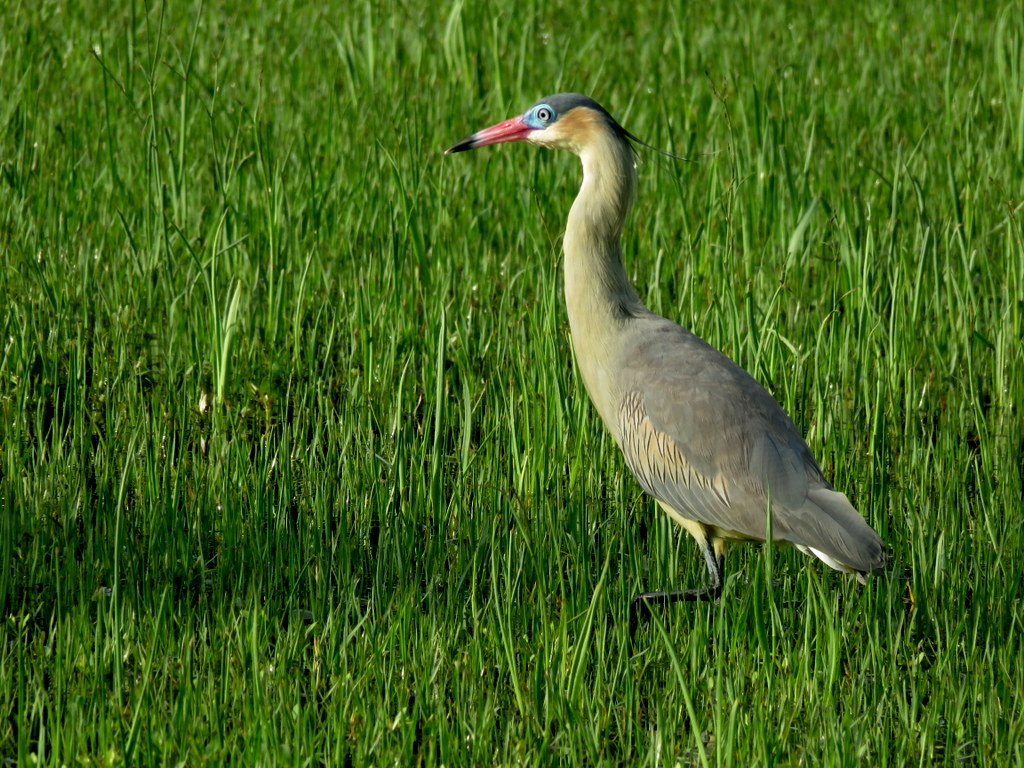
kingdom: Animalia
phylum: Chordata
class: Aves
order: Pelecaniformes
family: Ardeidae
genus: Syrigma
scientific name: Syrigma sibilatrix
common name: Whistling heron
